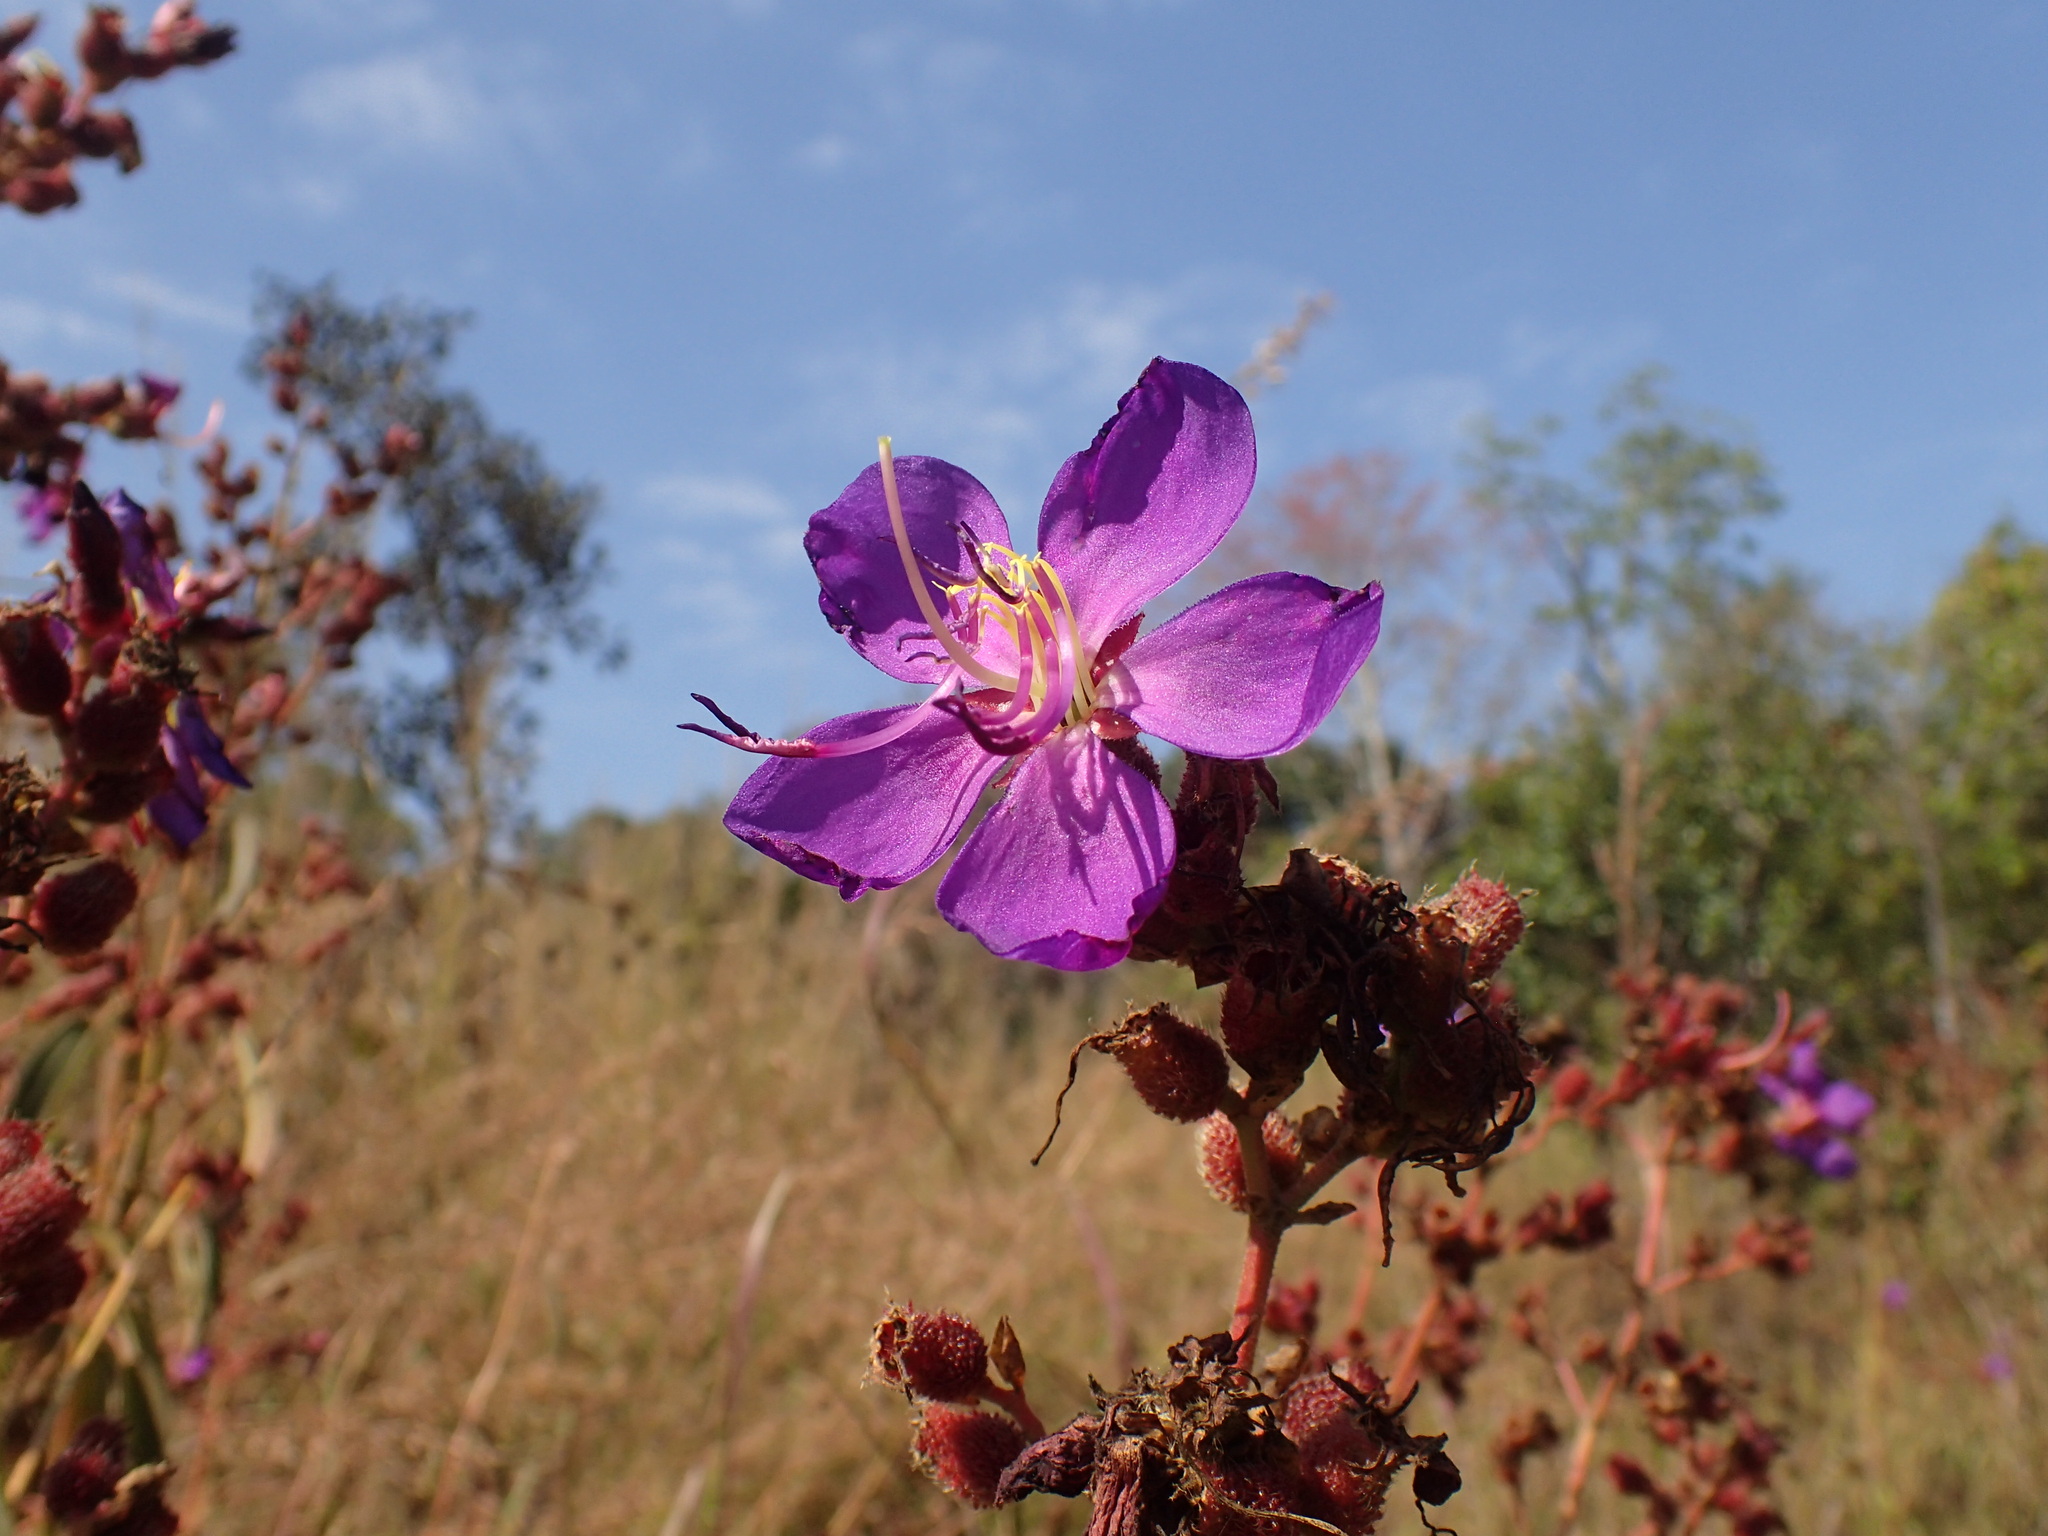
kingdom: Plantae
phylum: Tracheophyta
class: Magnoliopsida
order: Myrtales
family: Melastomataceae
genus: Rosettea
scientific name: Rosettea princeps
